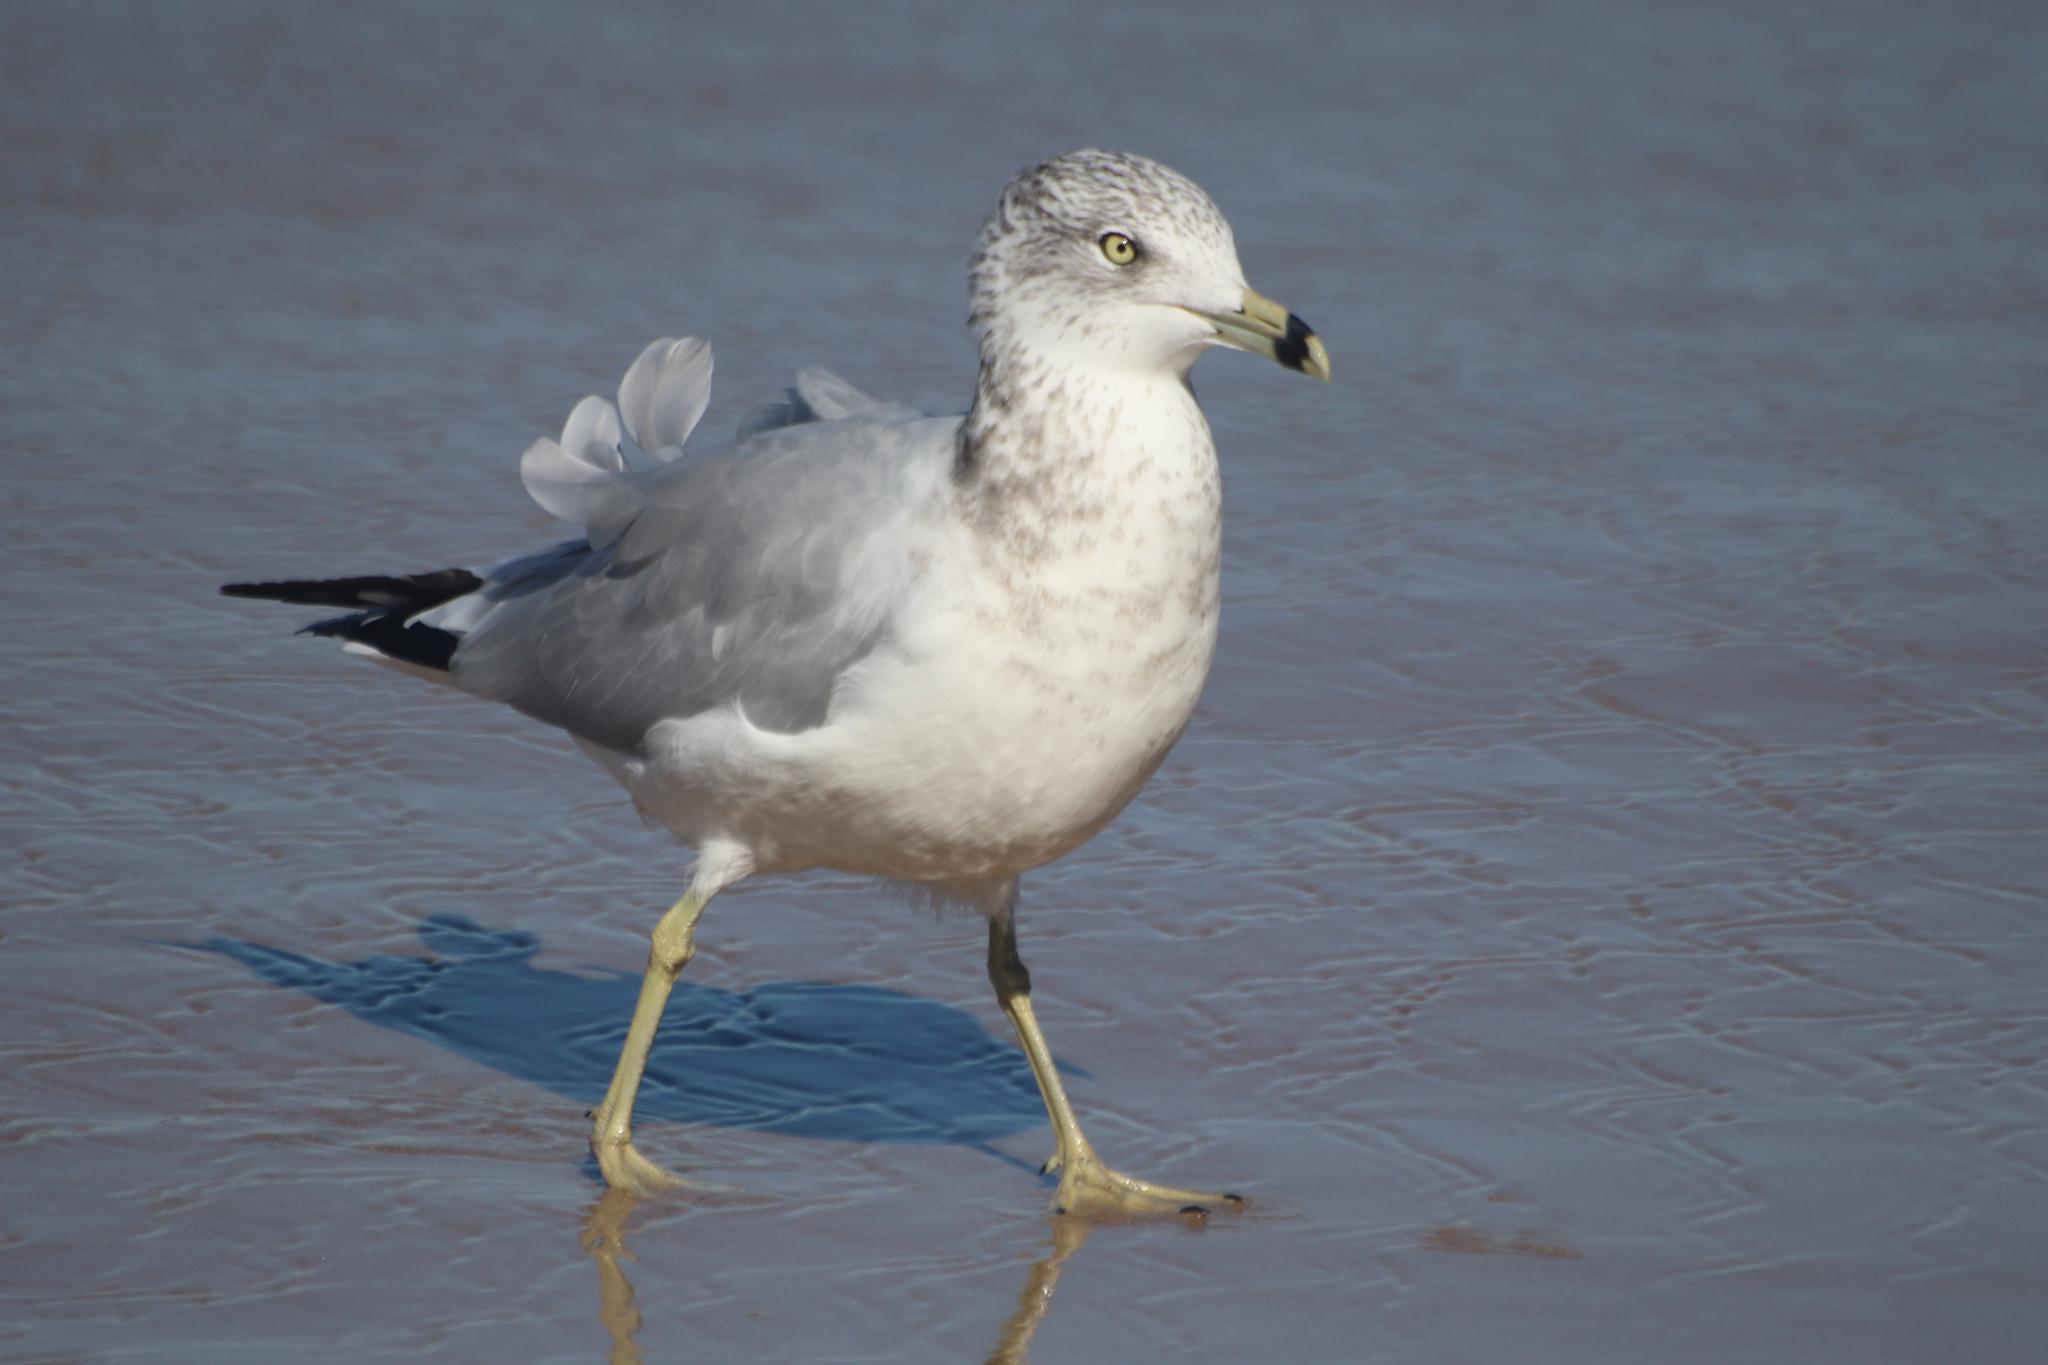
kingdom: Animalia
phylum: Chordata
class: Aves
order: Charadriiformes
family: Laridae
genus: Larus
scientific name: Larus delawarensis
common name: Ring-billed gull
